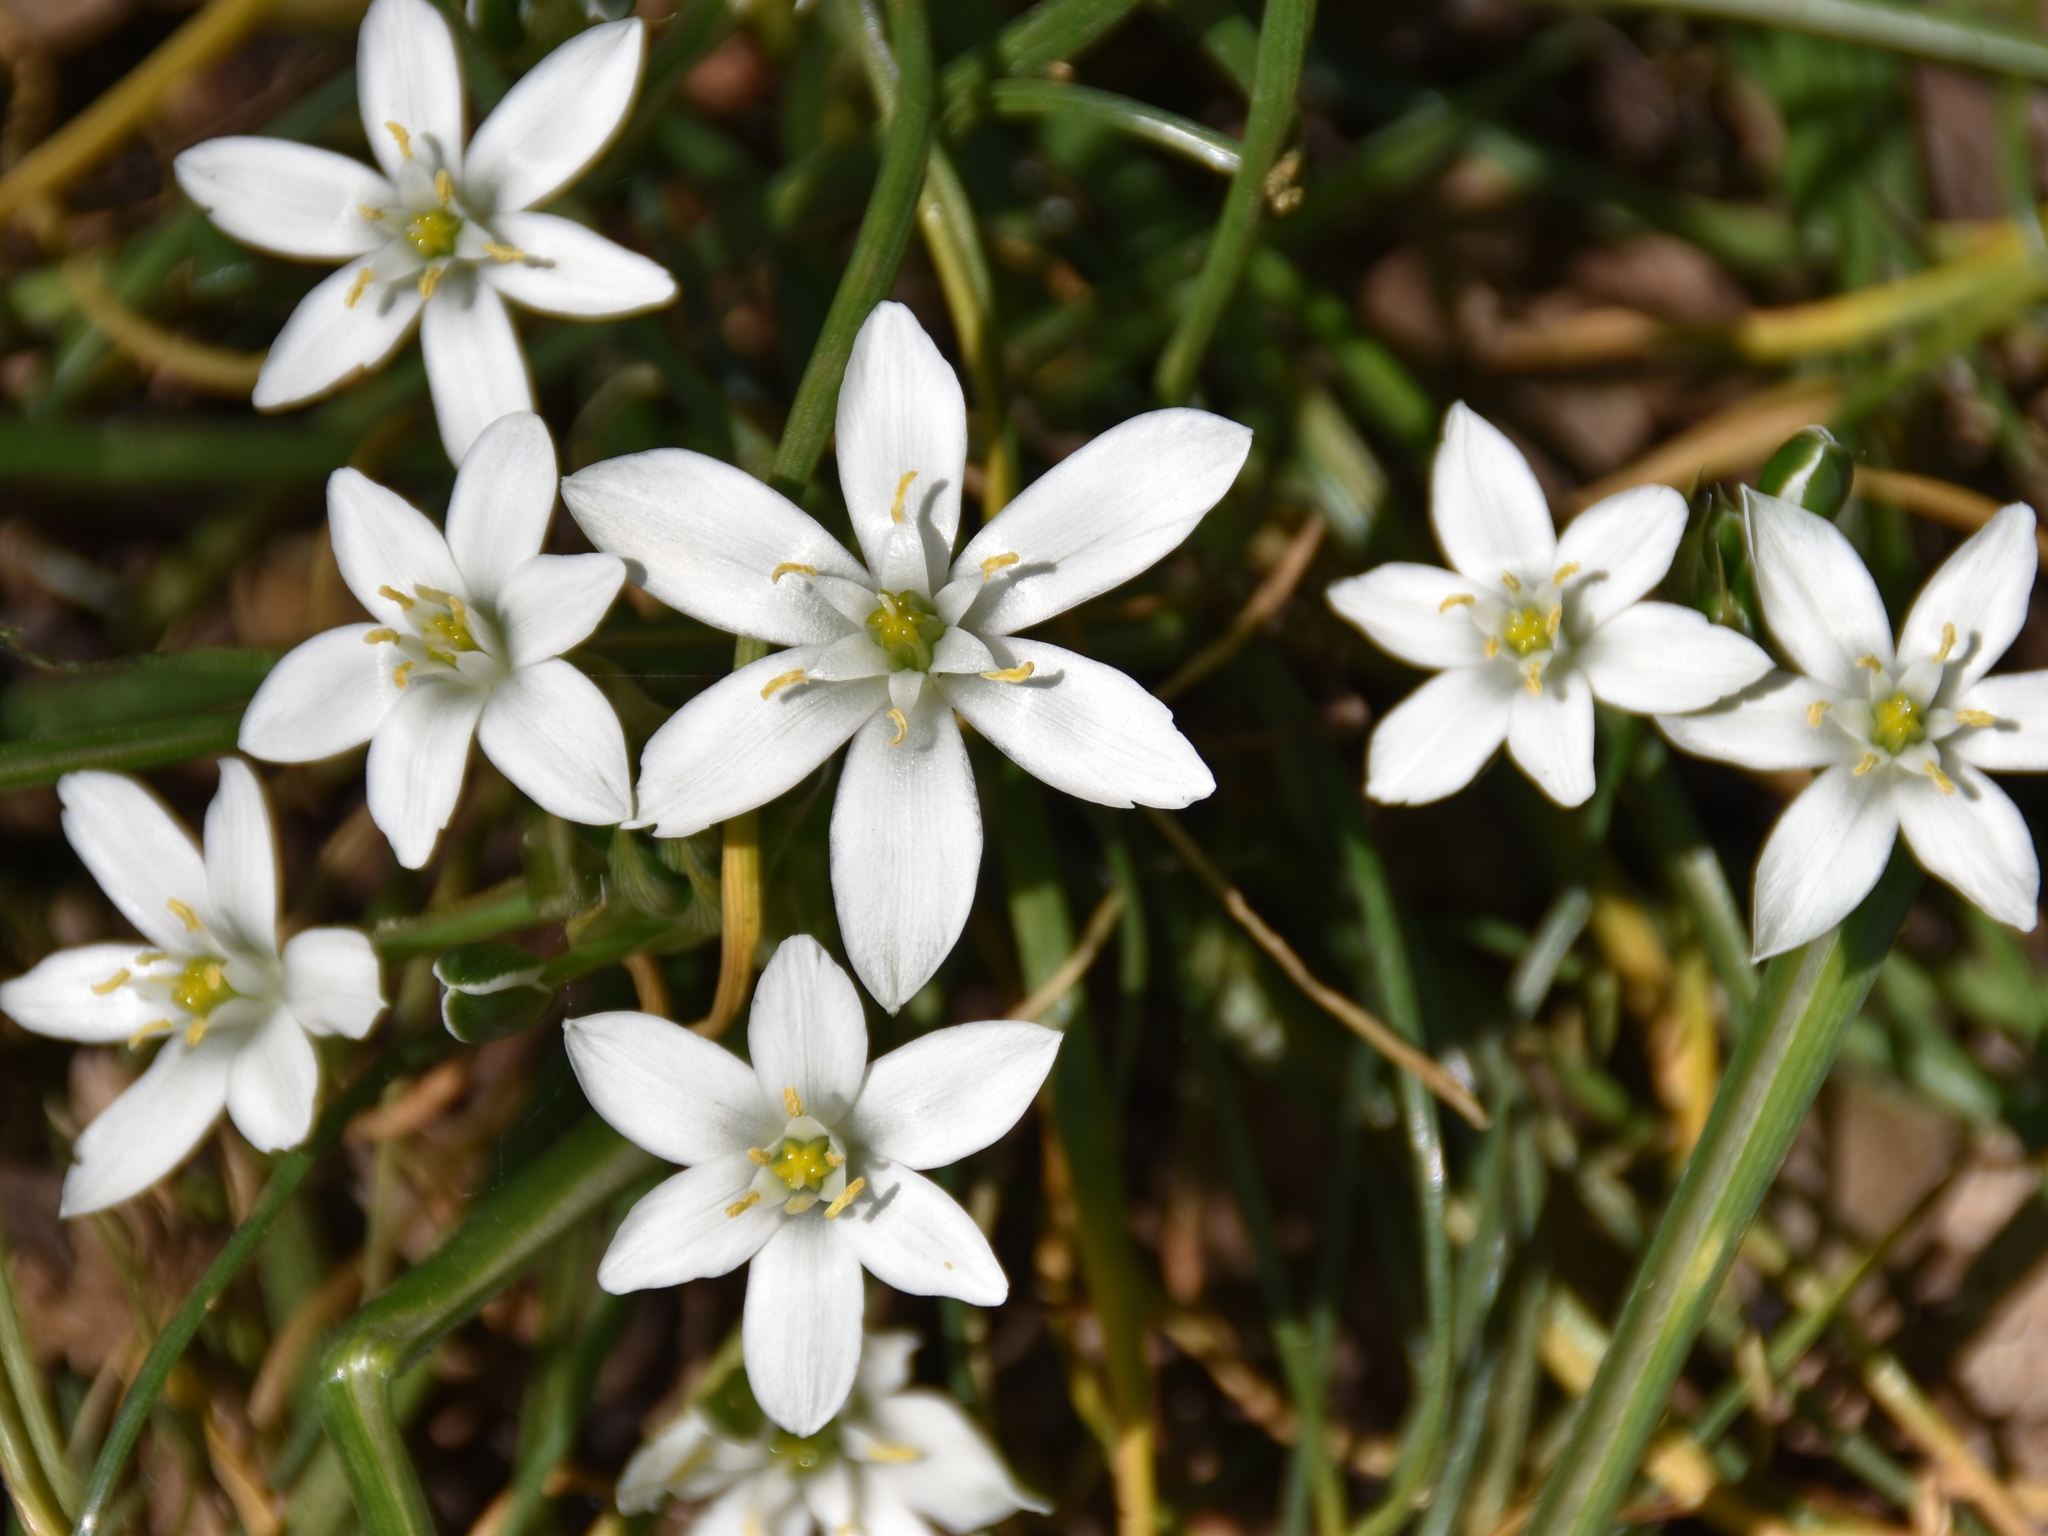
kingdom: Plantae
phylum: Tracheophyta
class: Liliopsida
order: Asparagales
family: Asparagaceae
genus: Ornithogalum
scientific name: Ornithogalum umbellatum
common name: Garden star-of-bethlehem
